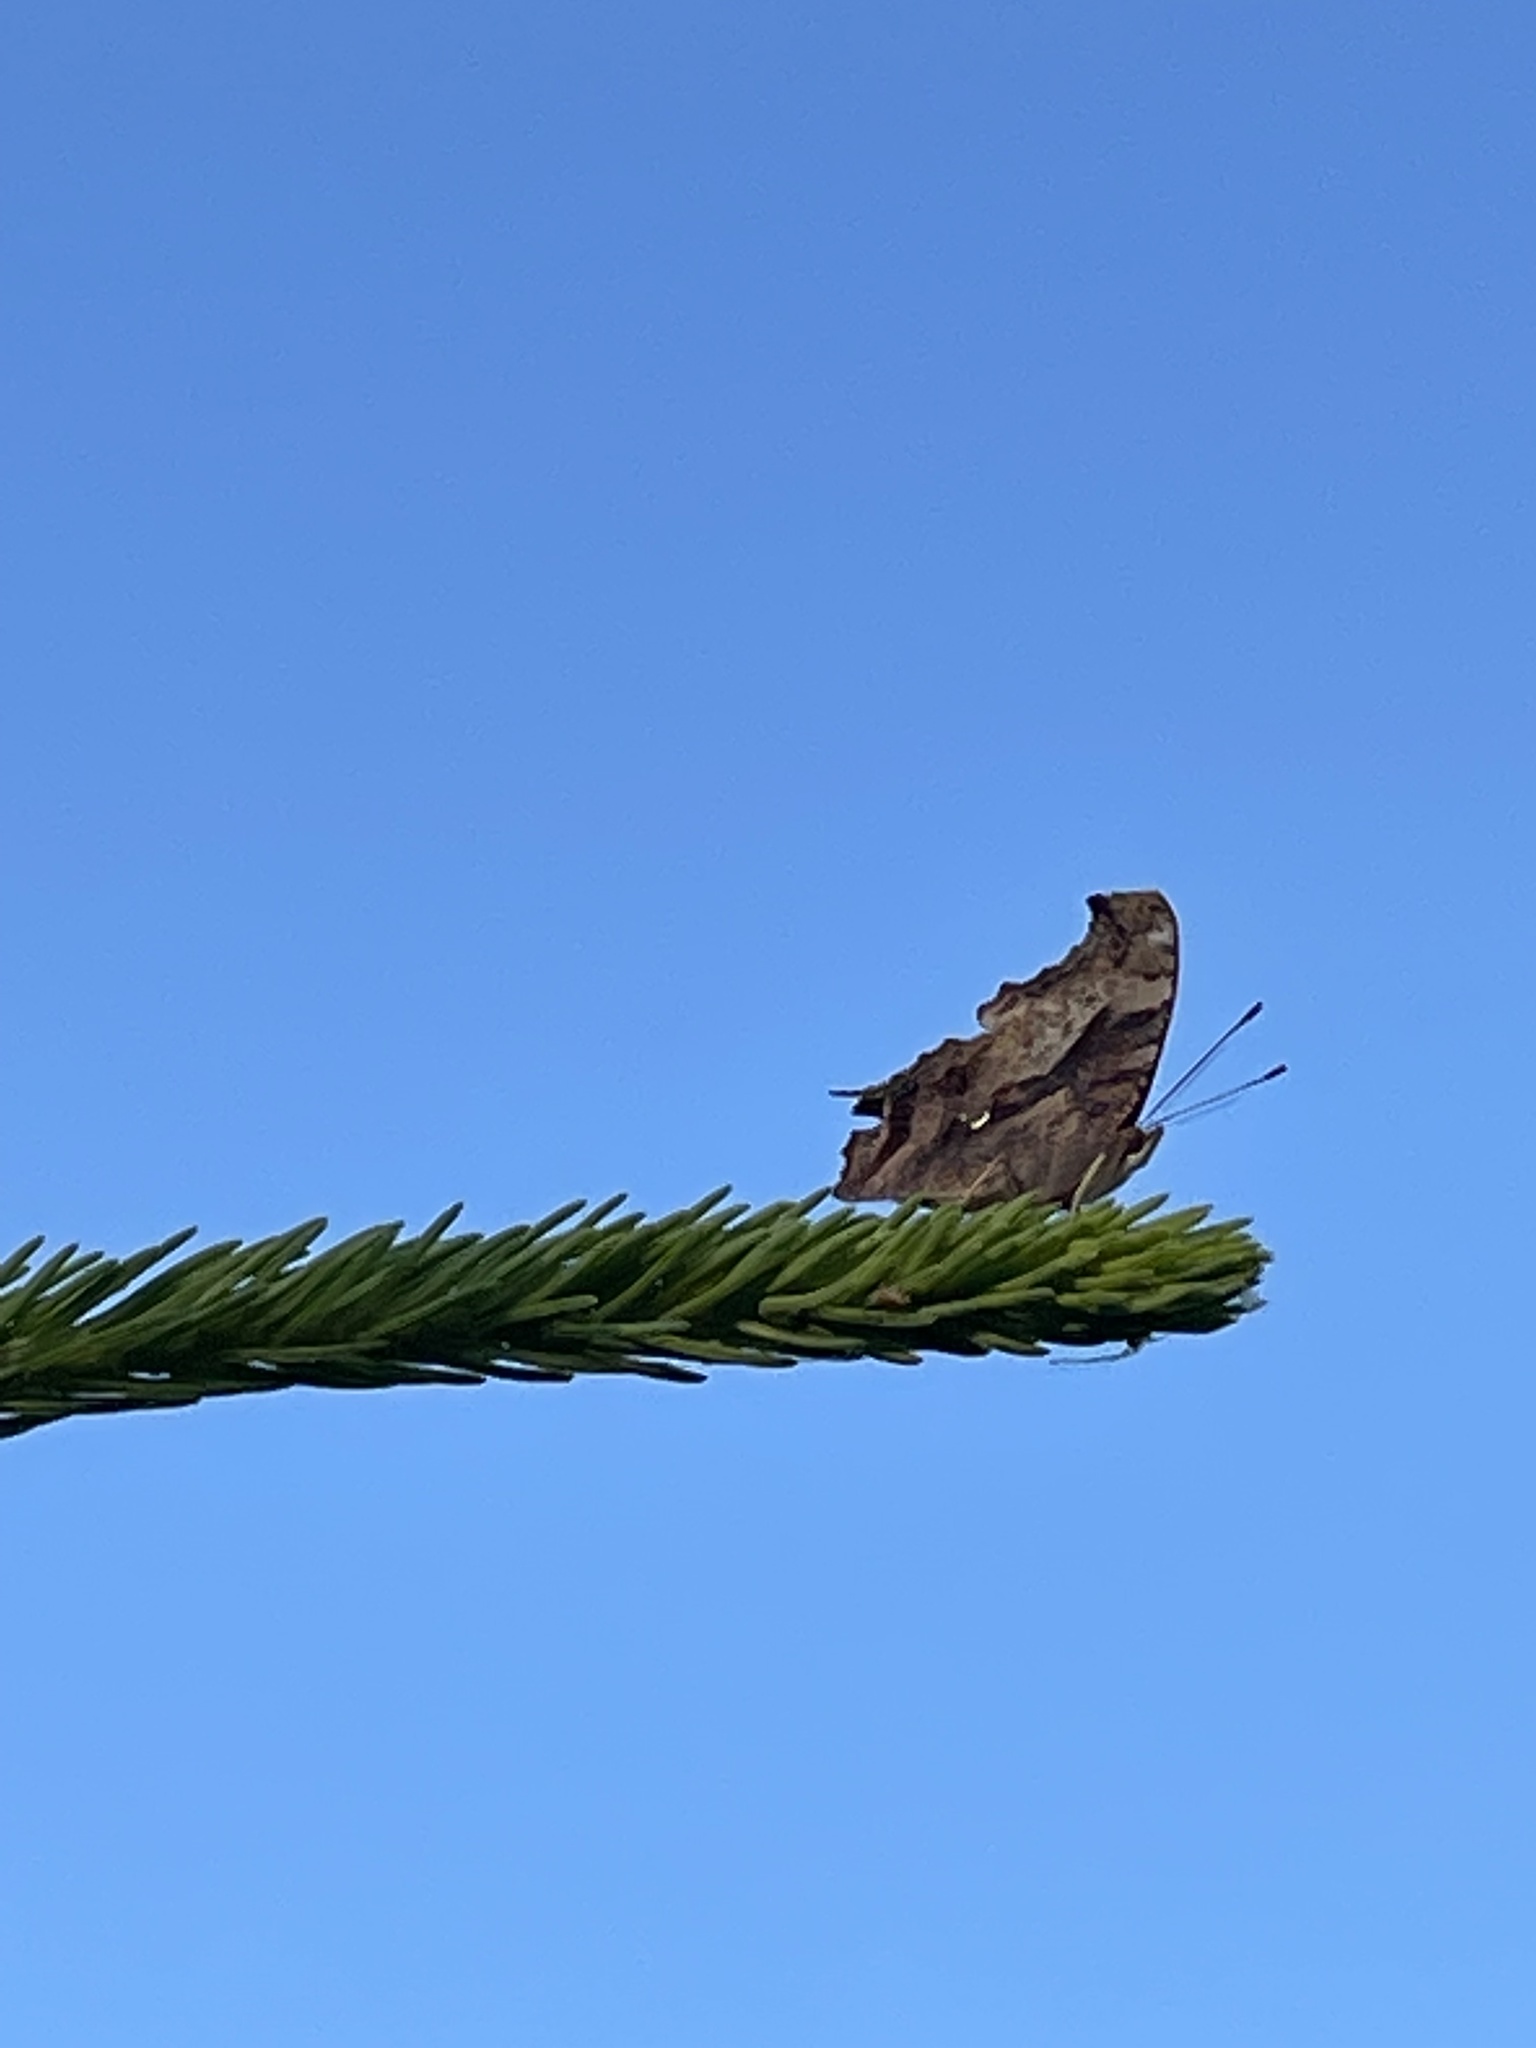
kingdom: Animalia
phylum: Arthropoda
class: Insecta
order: Lepidoptera
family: Nymphalidae
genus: Polygonia
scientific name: Polygonia interrogationis
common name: Question mark
